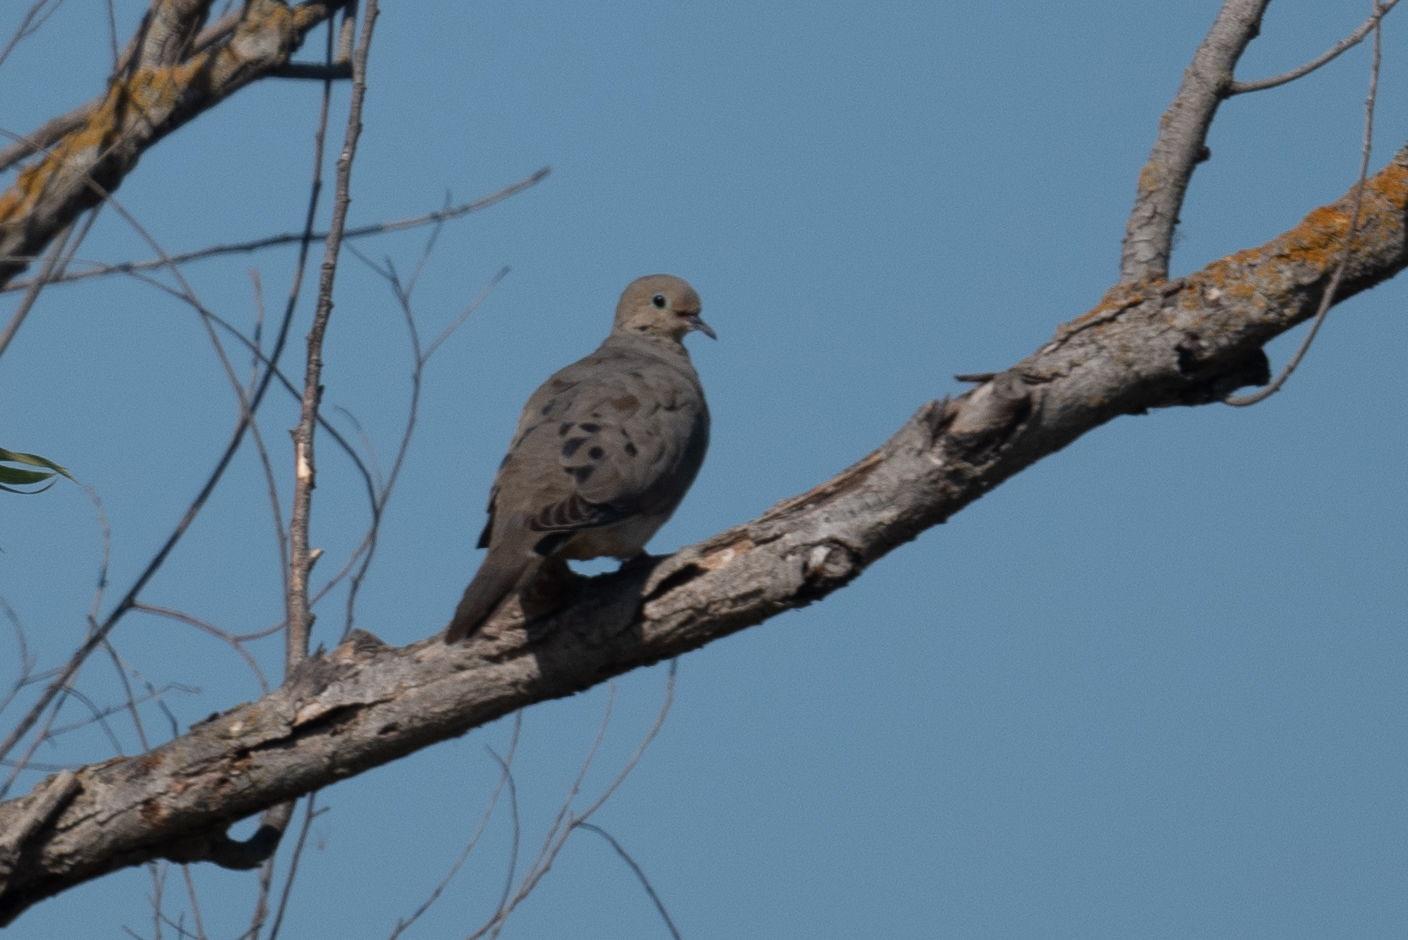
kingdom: Animalia
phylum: Chordata
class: Aves
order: Columbiformes
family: Columbidae
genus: Zenaida
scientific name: Zenaida macroura
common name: Mourning dove
